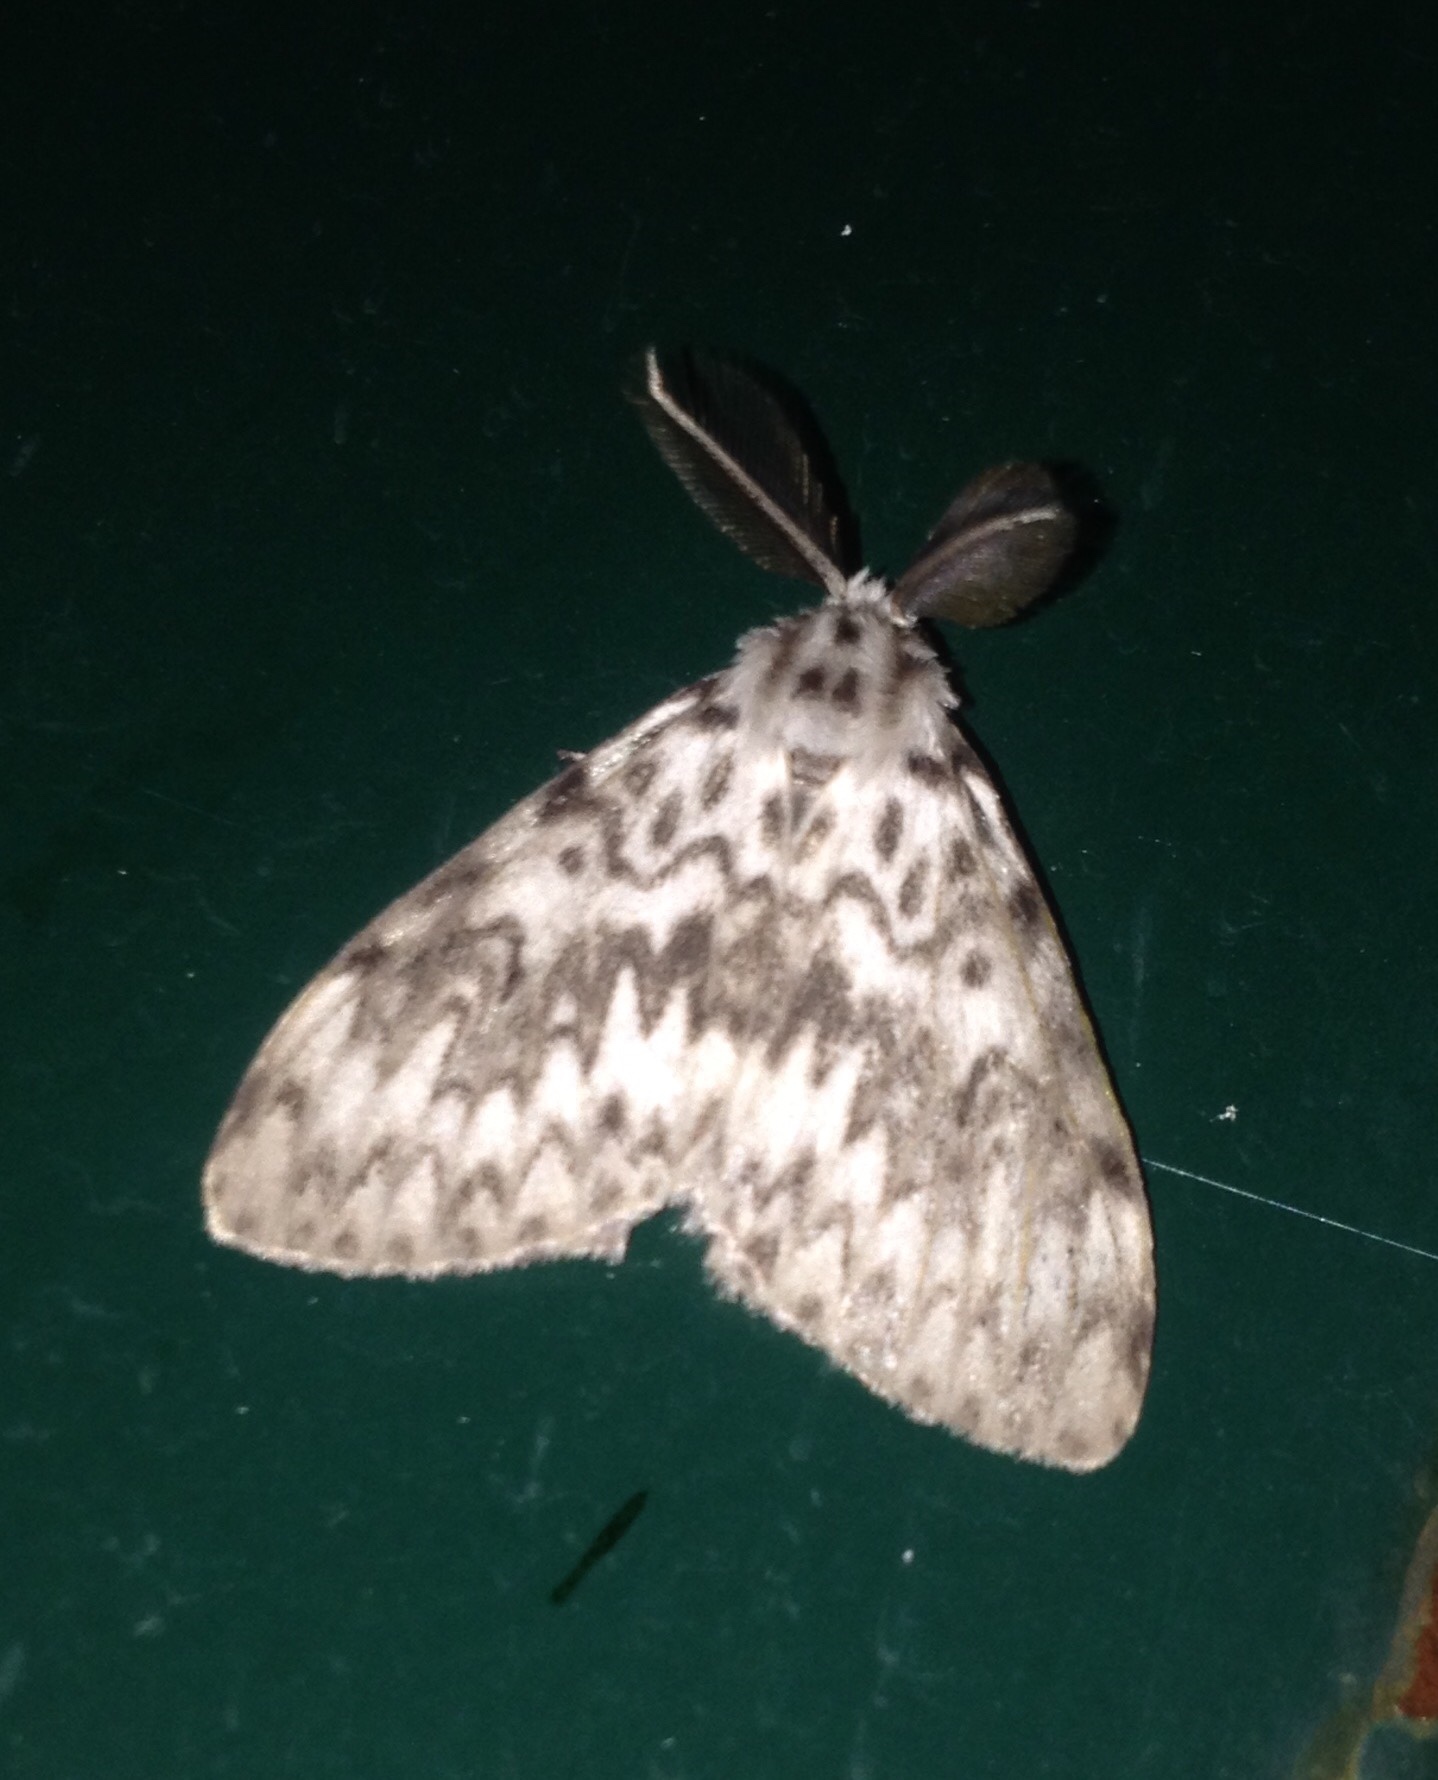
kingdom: Animalia
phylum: Arthropoda
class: Insecta
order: Lepidoptera
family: Erebidae
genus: Lymantria
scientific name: Lymantria monacha
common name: Black arches
